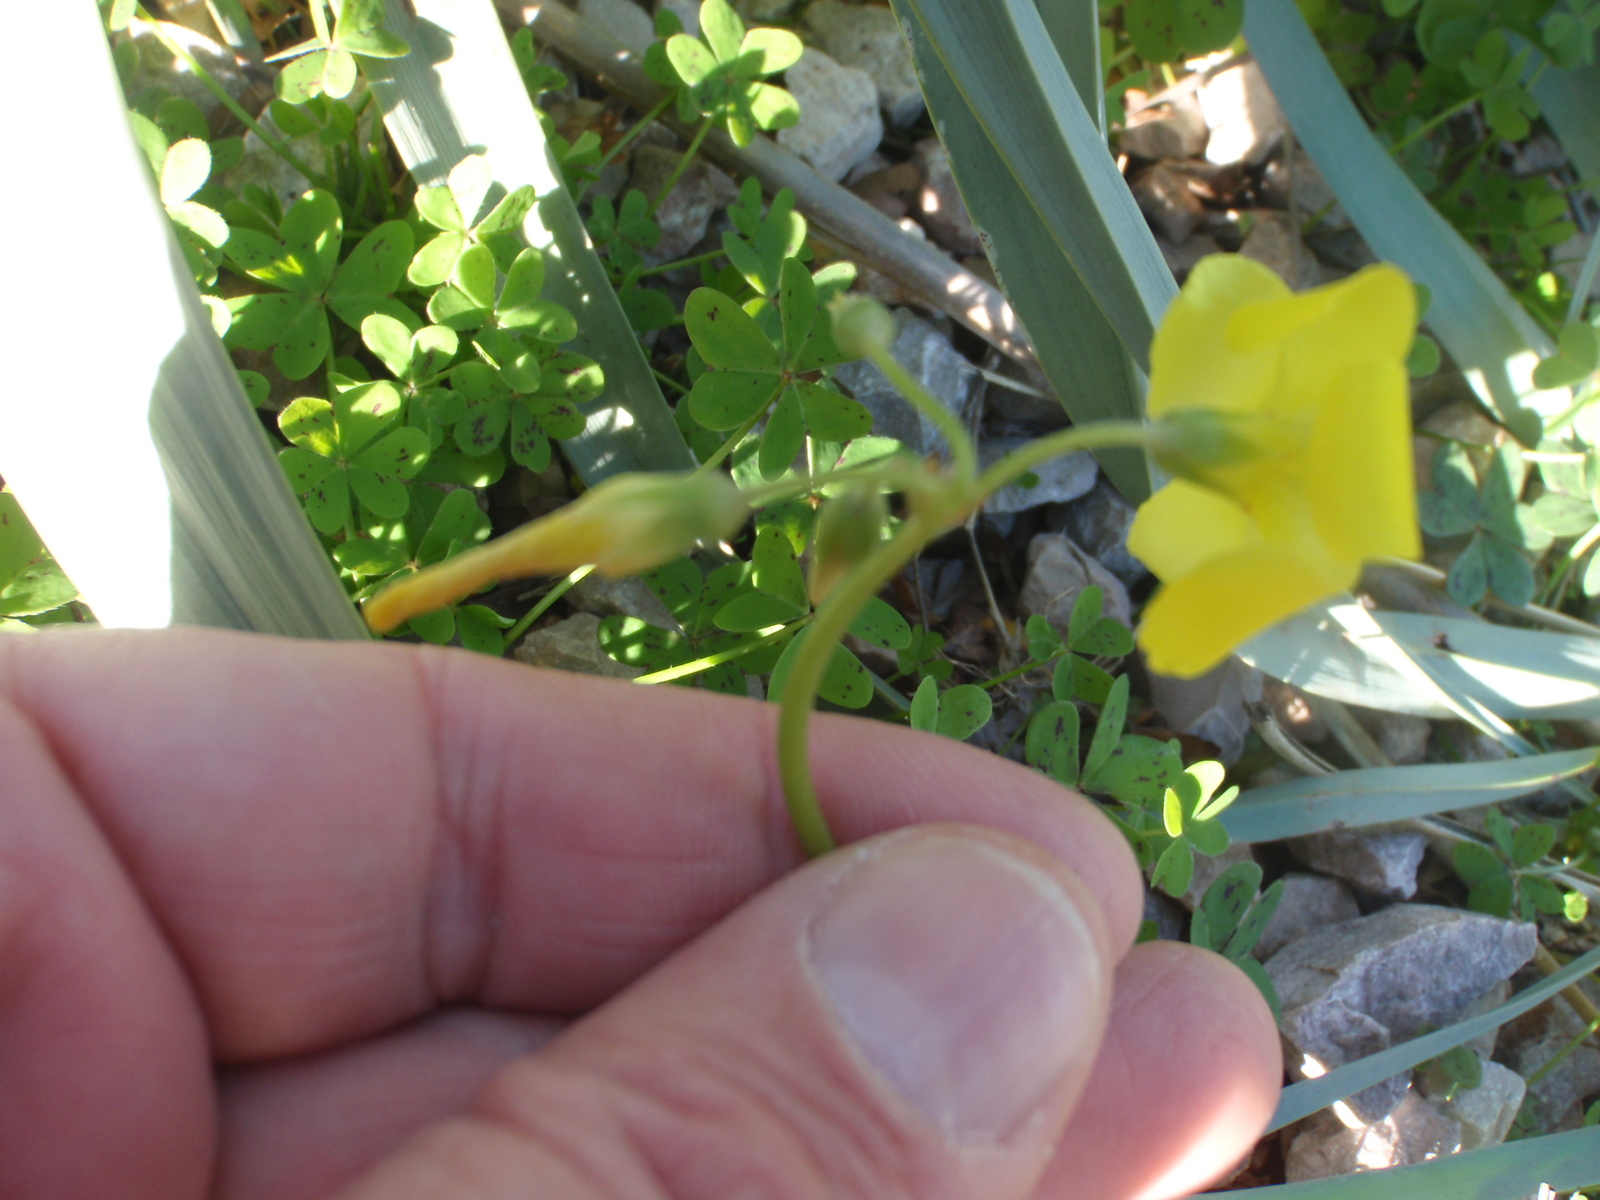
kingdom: Plantae
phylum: Tracheophyta
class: Magnoliopsida
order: Oxalidales
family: Oxalidaceae
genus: Oxalis
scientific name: Oxalis pes-caprae
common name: Bermuda-buttercup
